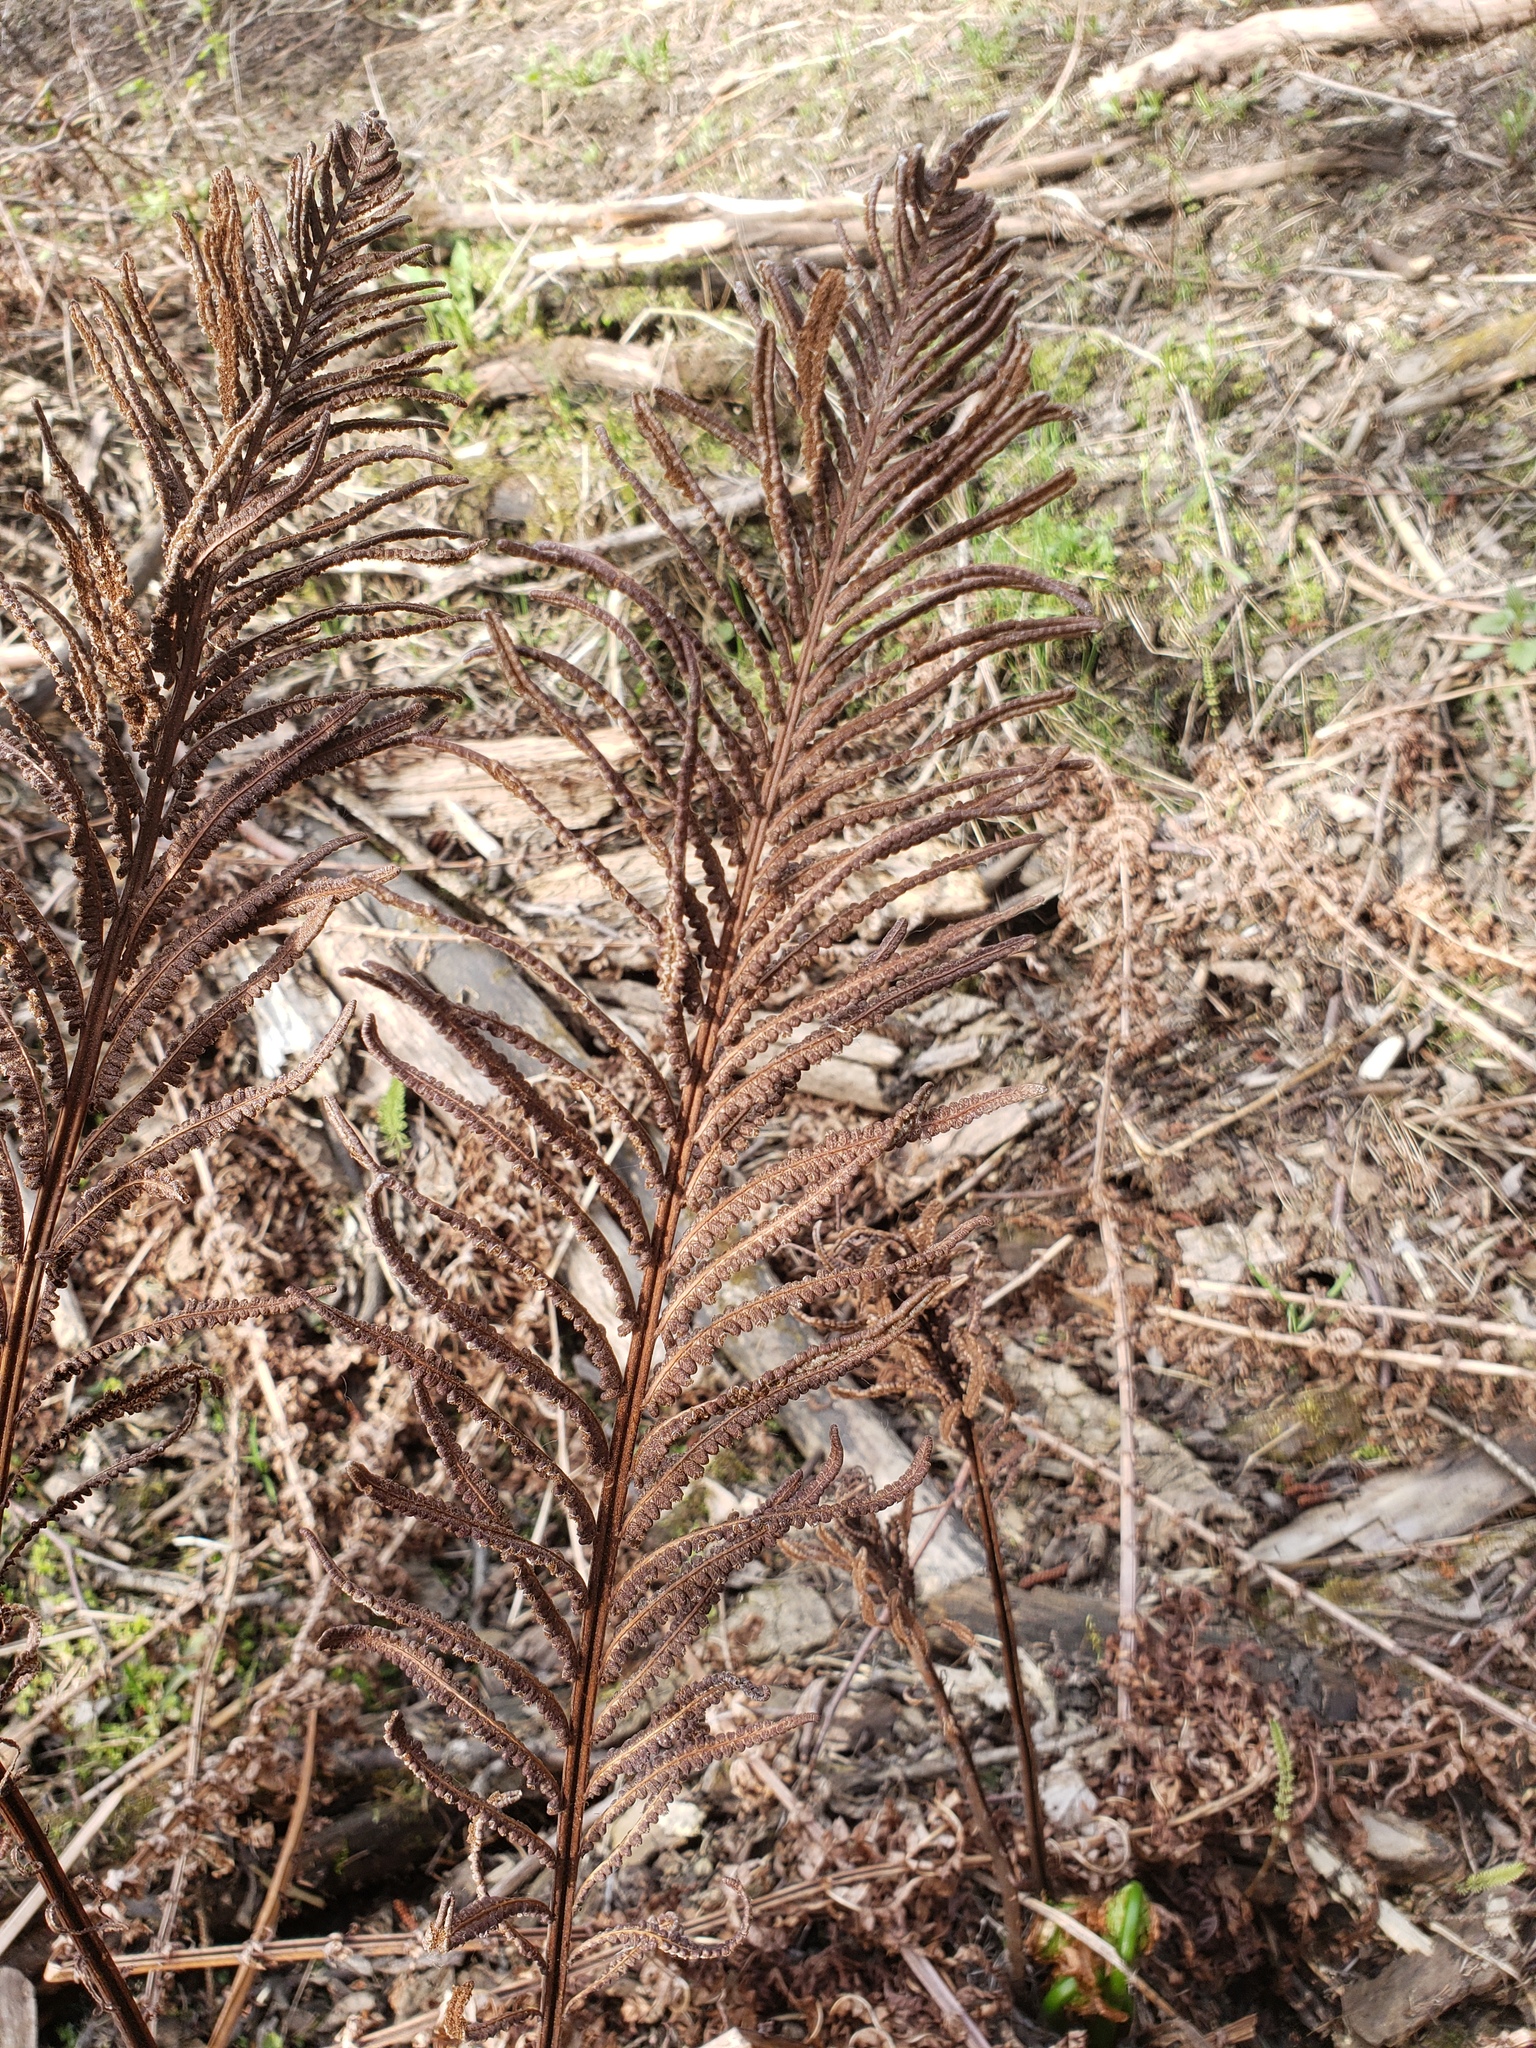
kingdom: Plantae
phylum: Tracheophyta
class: Polypodiopsida
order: Polypodiales
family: Onocleaceae
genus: Matteuccia
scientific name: Matteuccia struthiopteris
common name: Ostrich fern
